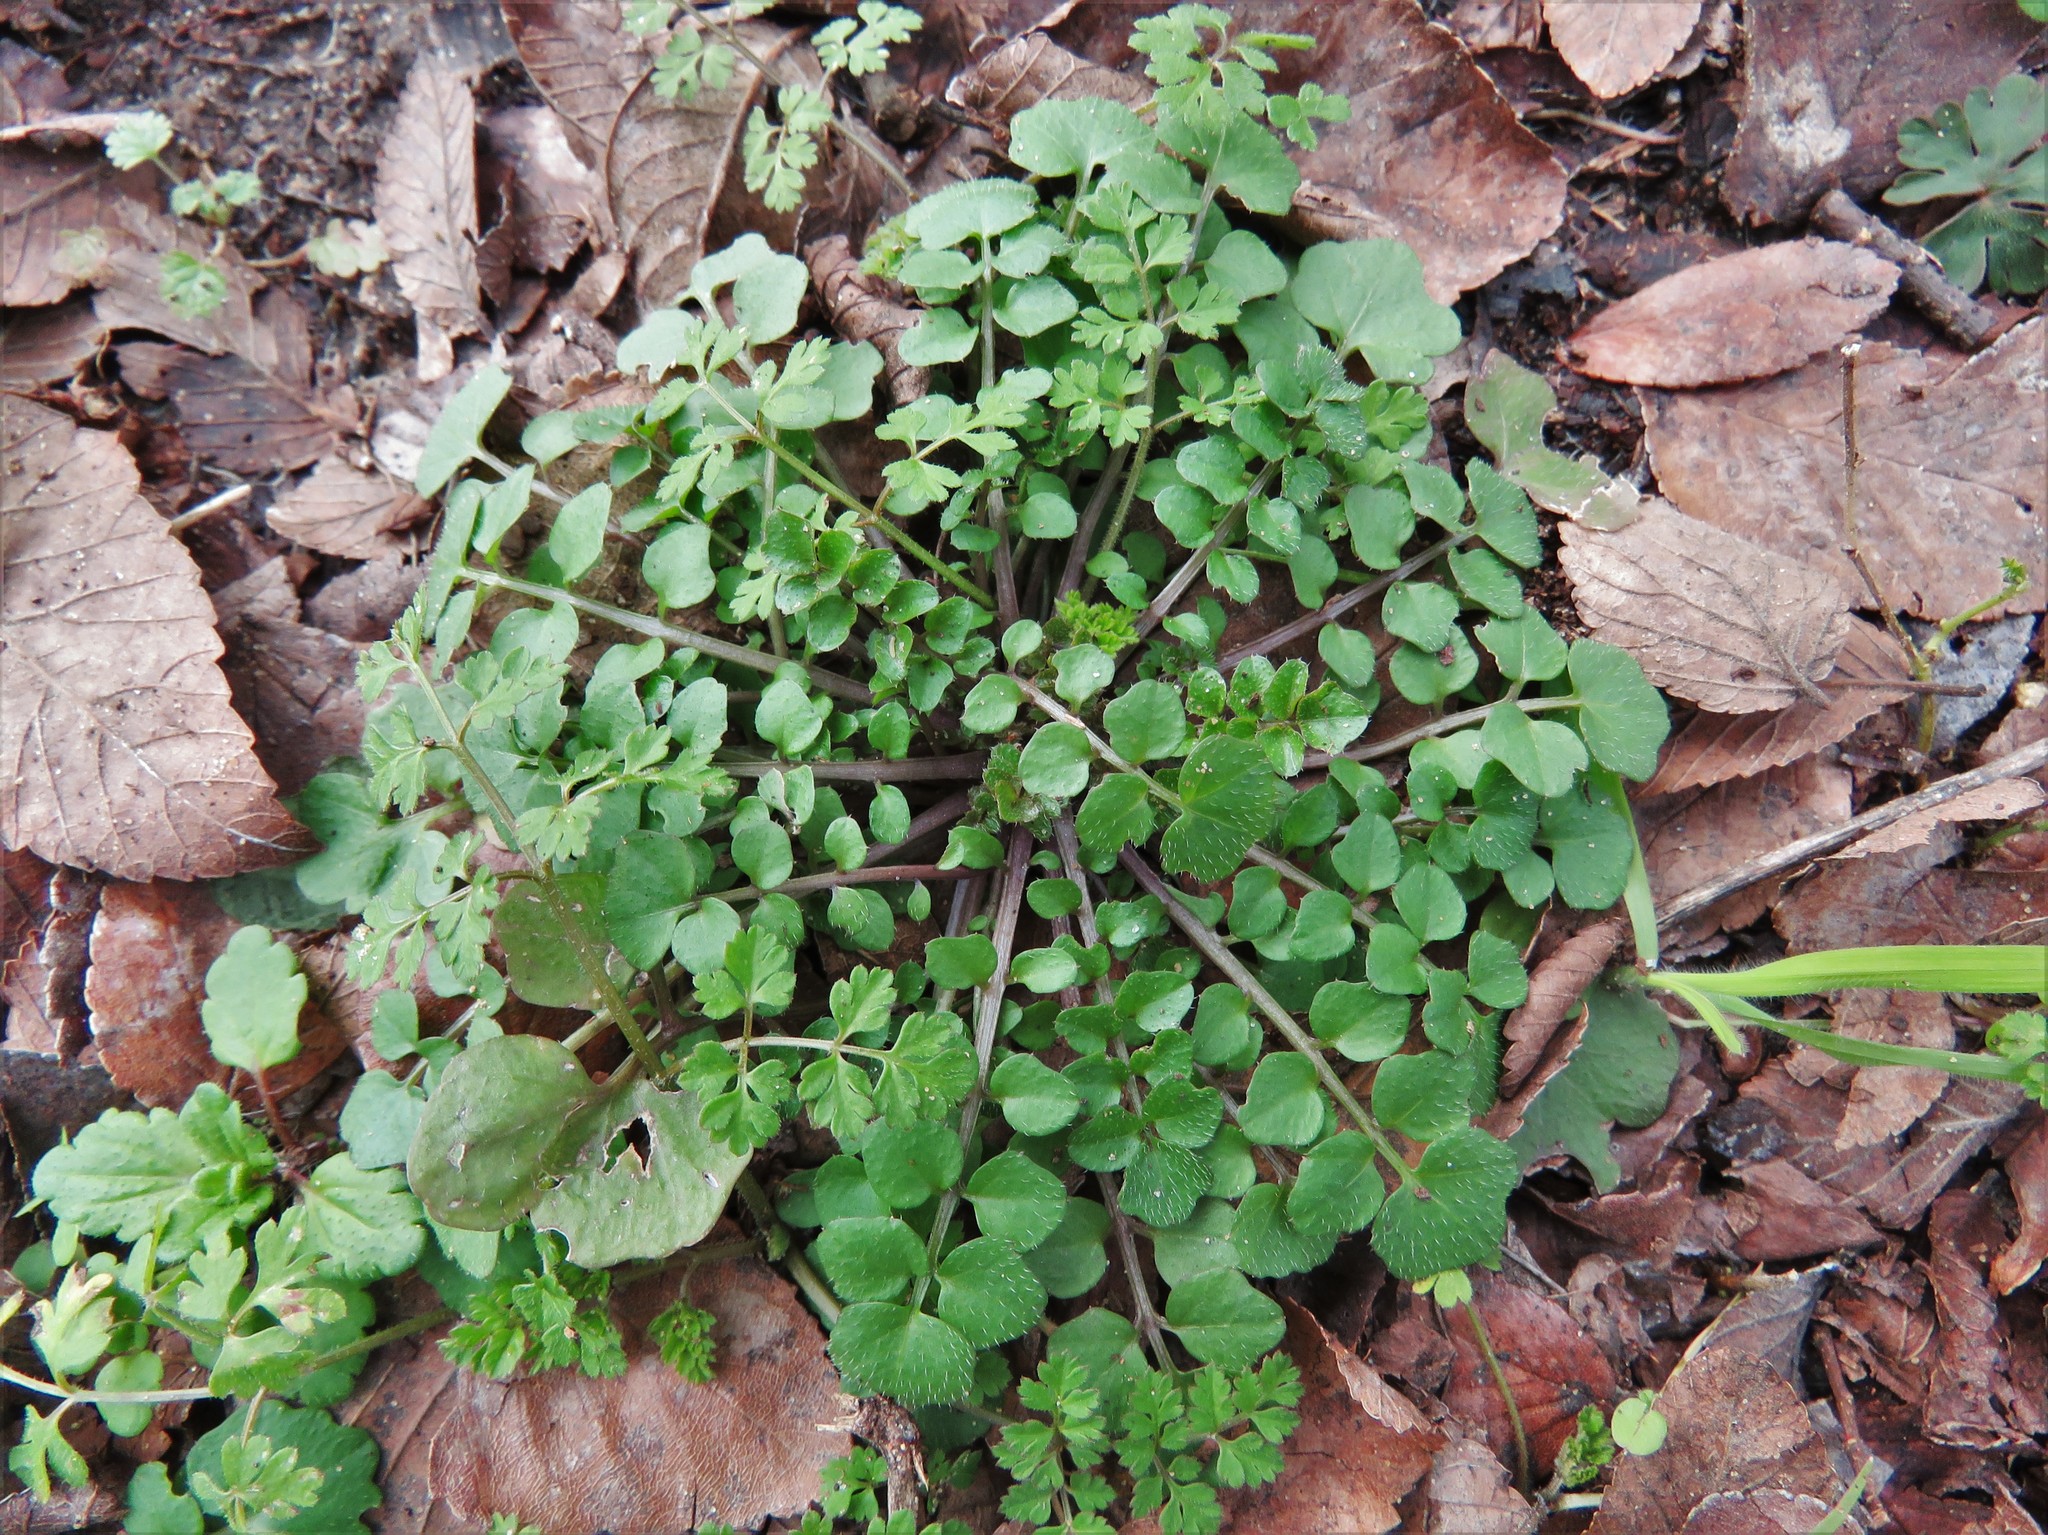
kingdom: Plantae
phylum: Tracheophyta
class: Magnoliopsida
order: Brassicales
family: Brassicaceae
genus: Cardamine
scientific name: Cardamine hirsuta
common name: Hairy bittercress
